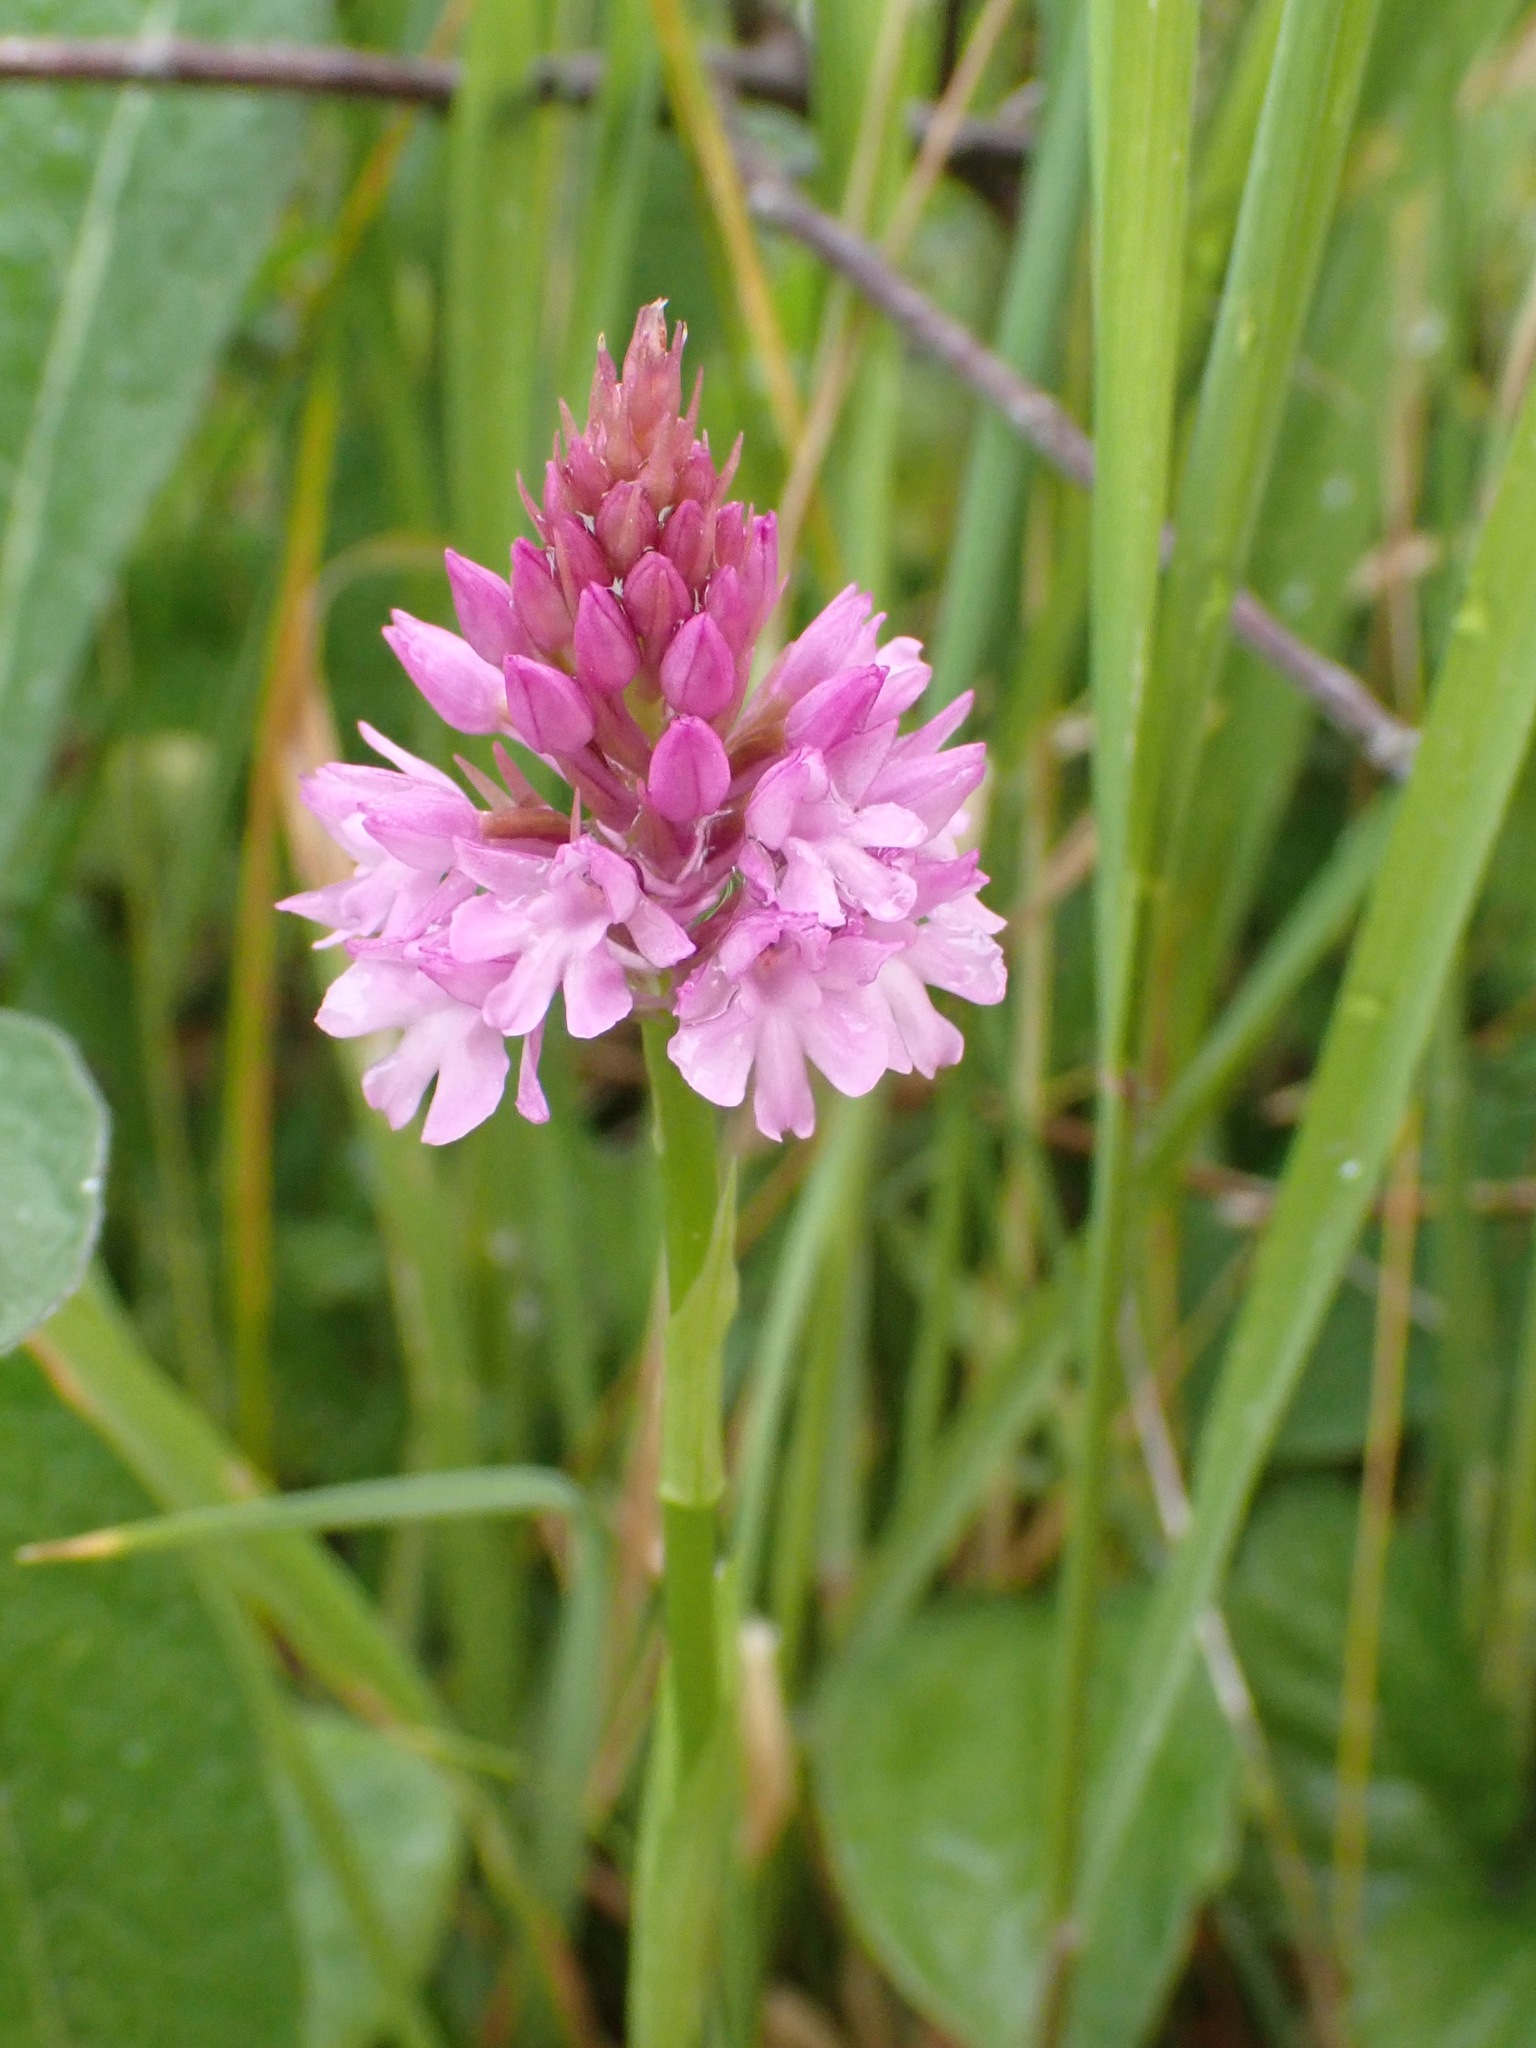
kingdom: Plantae
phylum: Tracheophyta
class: Liliopsida
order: Asparagales
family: Orchidaceae
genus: Anacamptis
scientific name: Anacamptis pyramidalis
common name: Pyramidal orchid
